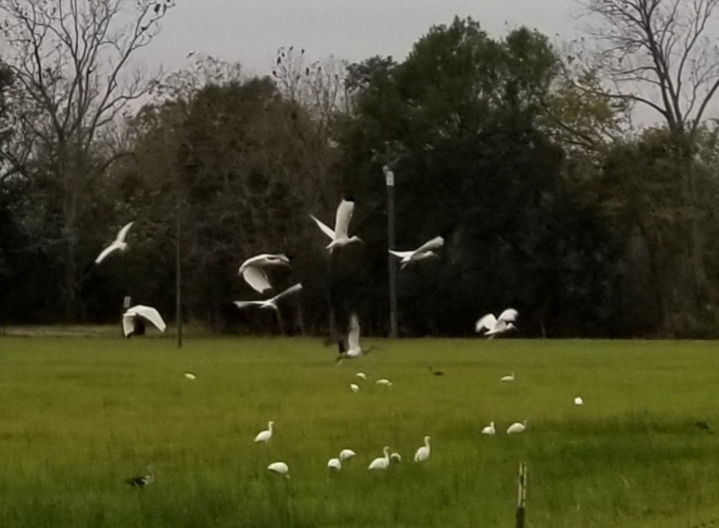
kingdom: Animalia
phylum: Chordata
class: Aves
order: Pelecaniformes
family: Threskiornithidae
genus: Eudocimus
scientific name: Eudocimus albus
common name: White ibis
